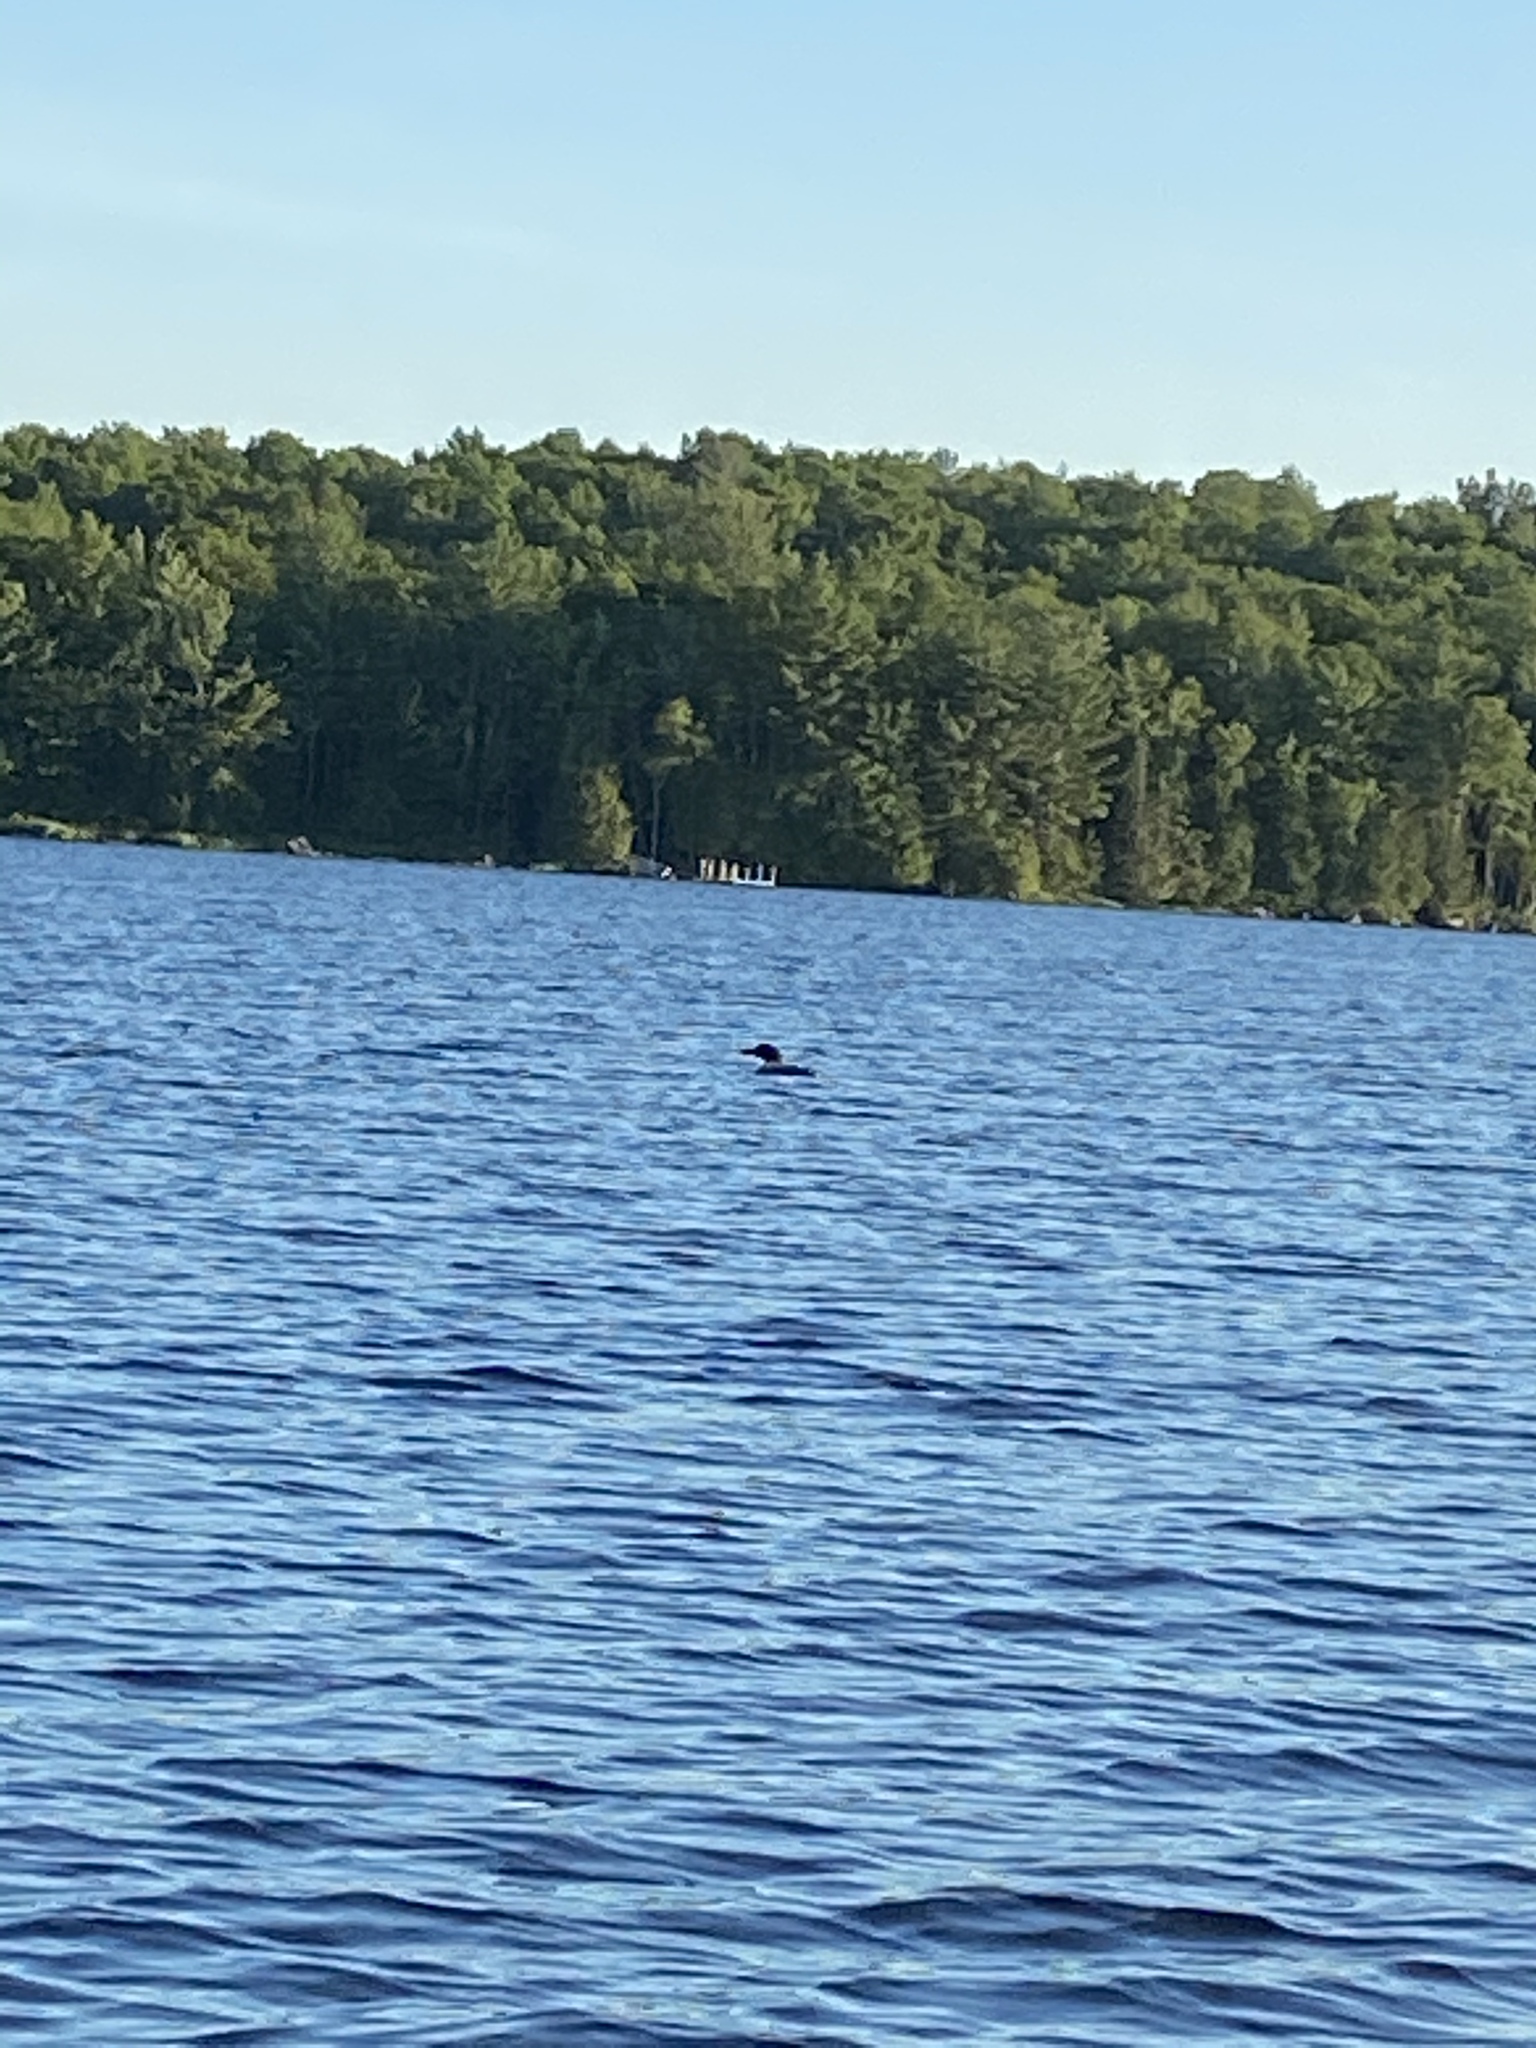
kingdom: Animalia
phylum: Chordata
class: Aves
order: Gaviiformes
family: Gaviidae
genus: Gavia
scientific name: Gavia immer
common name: Common loon
